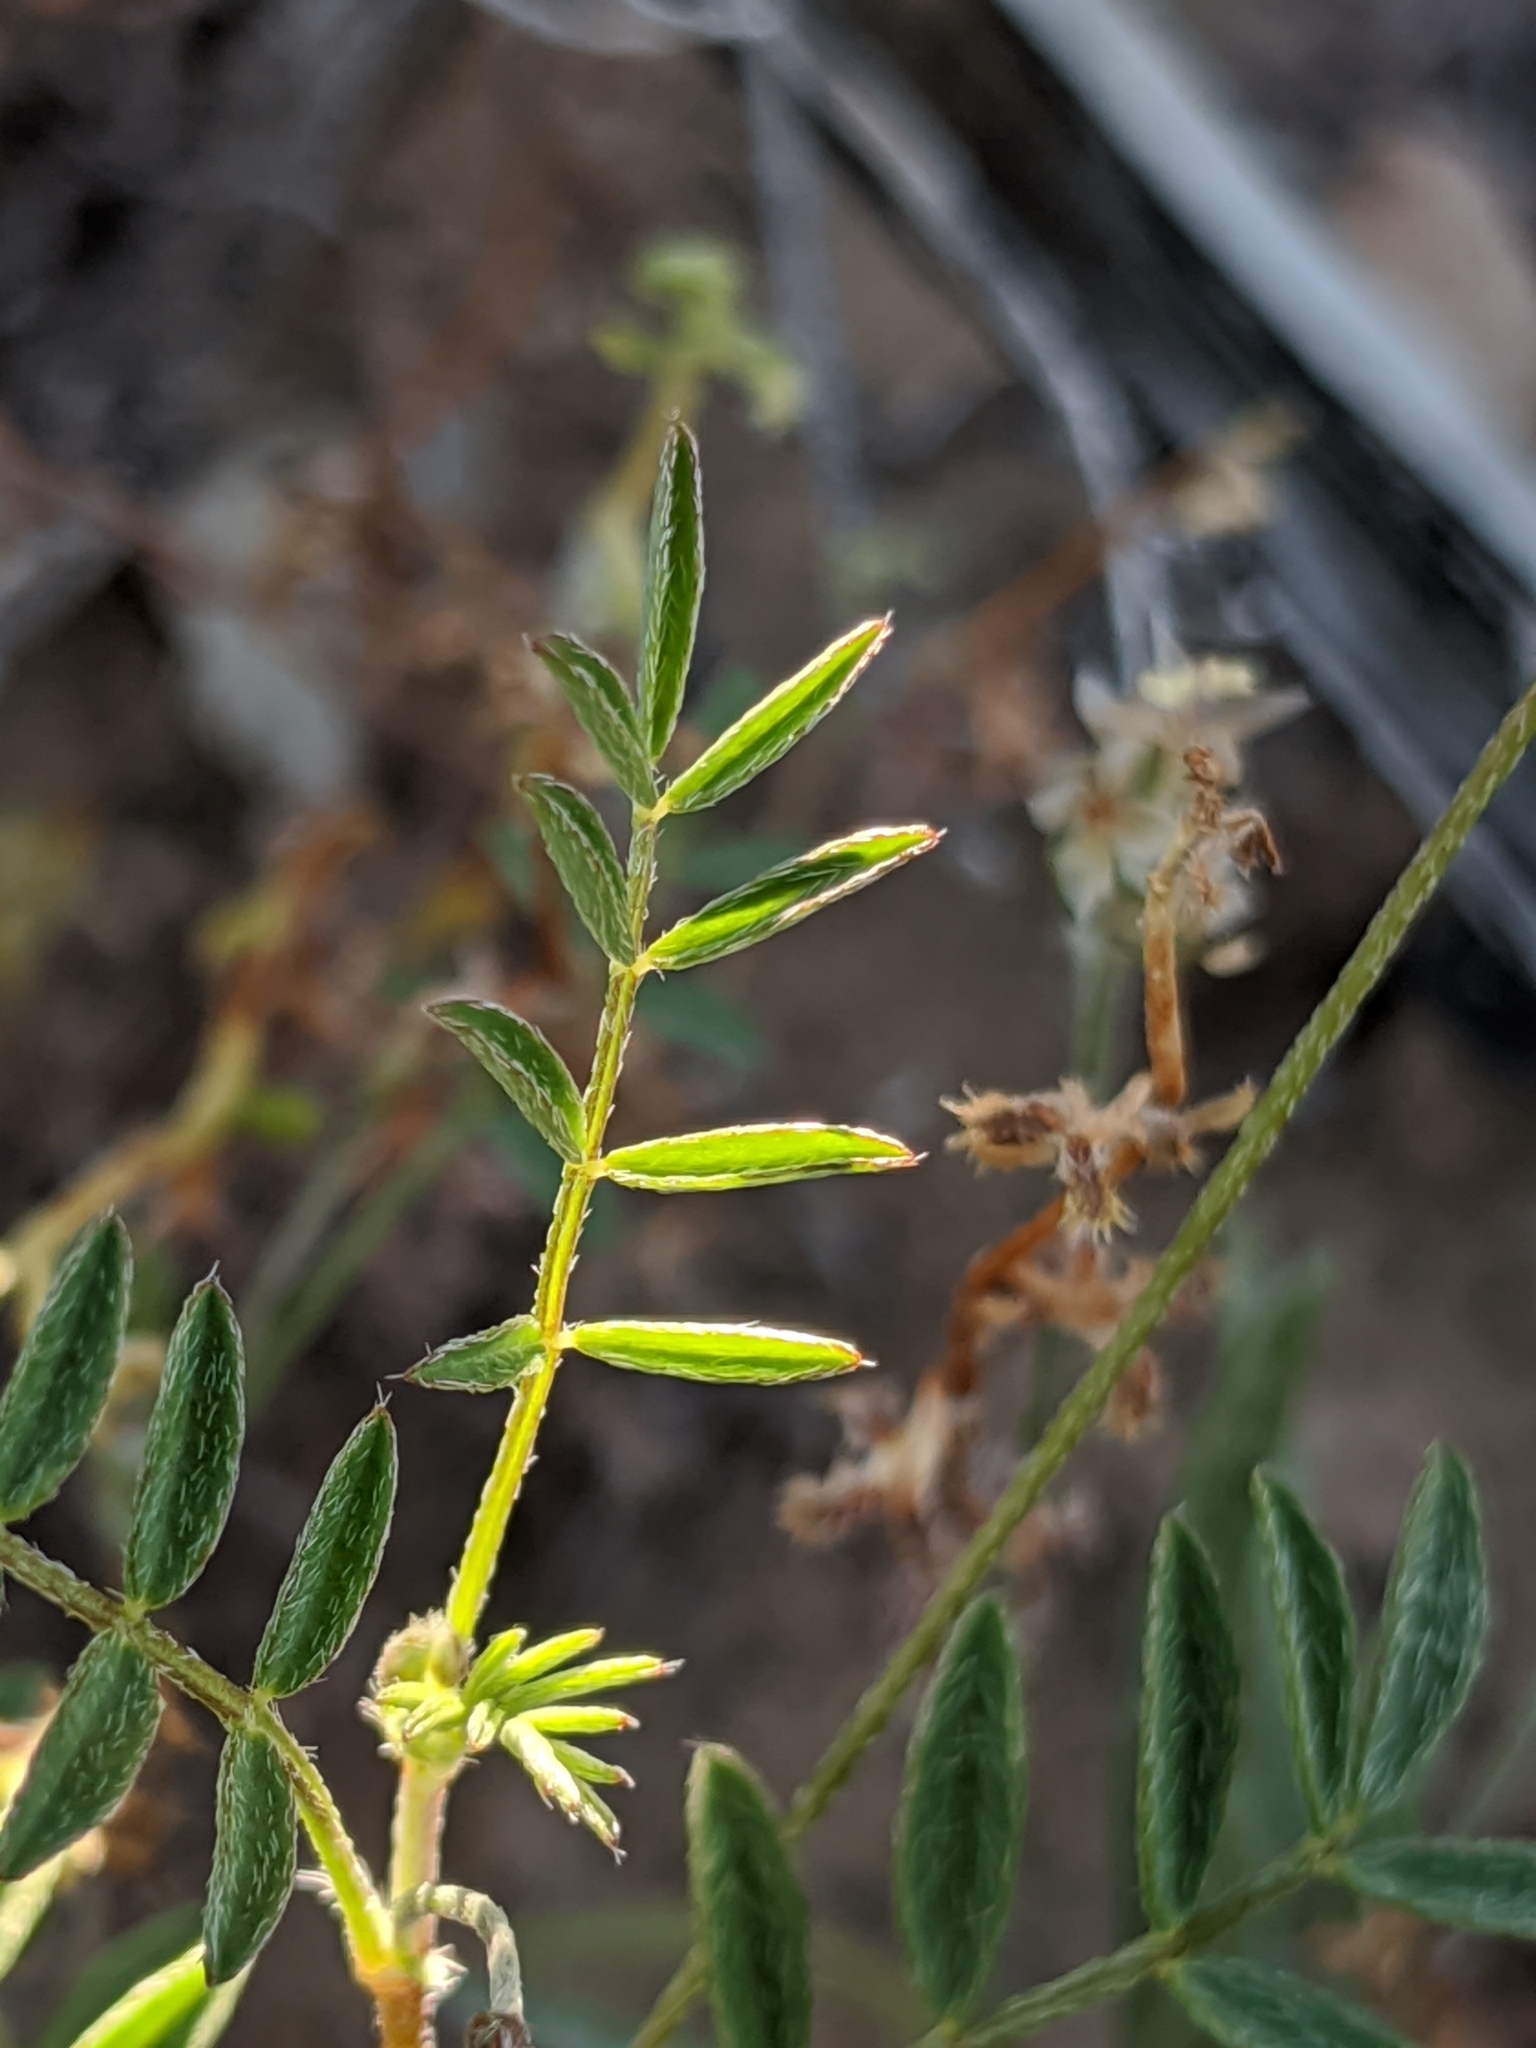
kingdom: Plantae
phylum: Tracheophyta
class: Magnoliopsida
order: Fabales
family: Fabaceae
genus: Astragalus
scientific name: Astragalus nuttallianus
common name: Smallflowered milkvetch
